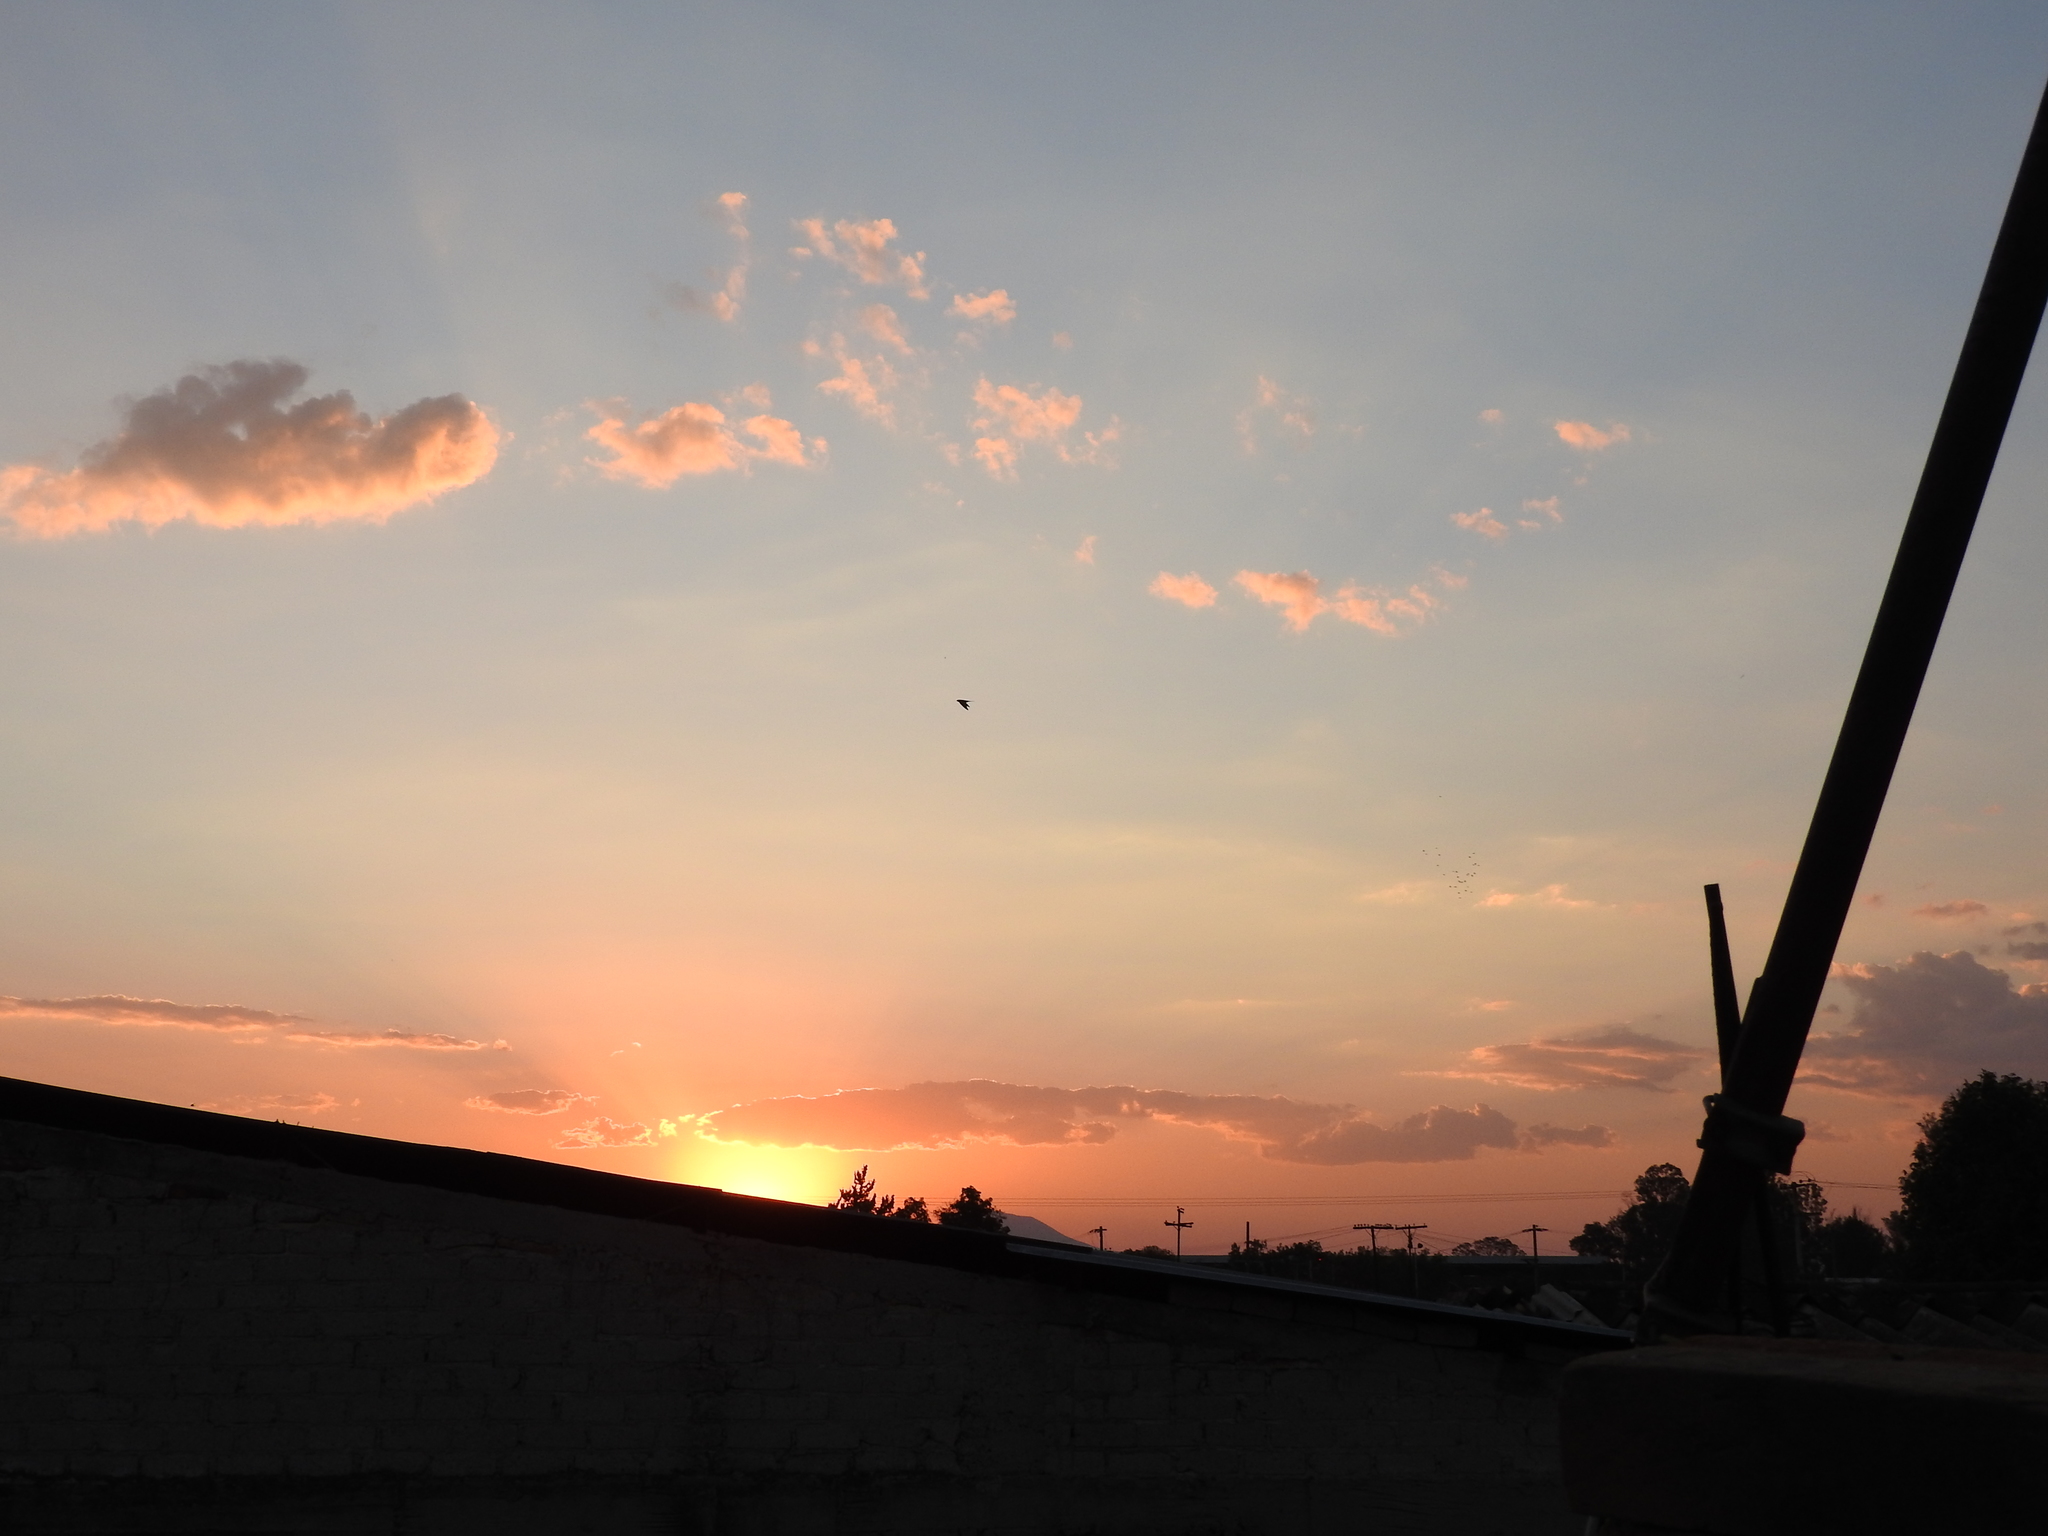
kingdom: Animalia
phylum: Chordata
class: Aves
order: Passeriformes
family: Hirundinidae
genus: Hirundo
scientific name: Hirundo rustica
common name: Barn swallow
